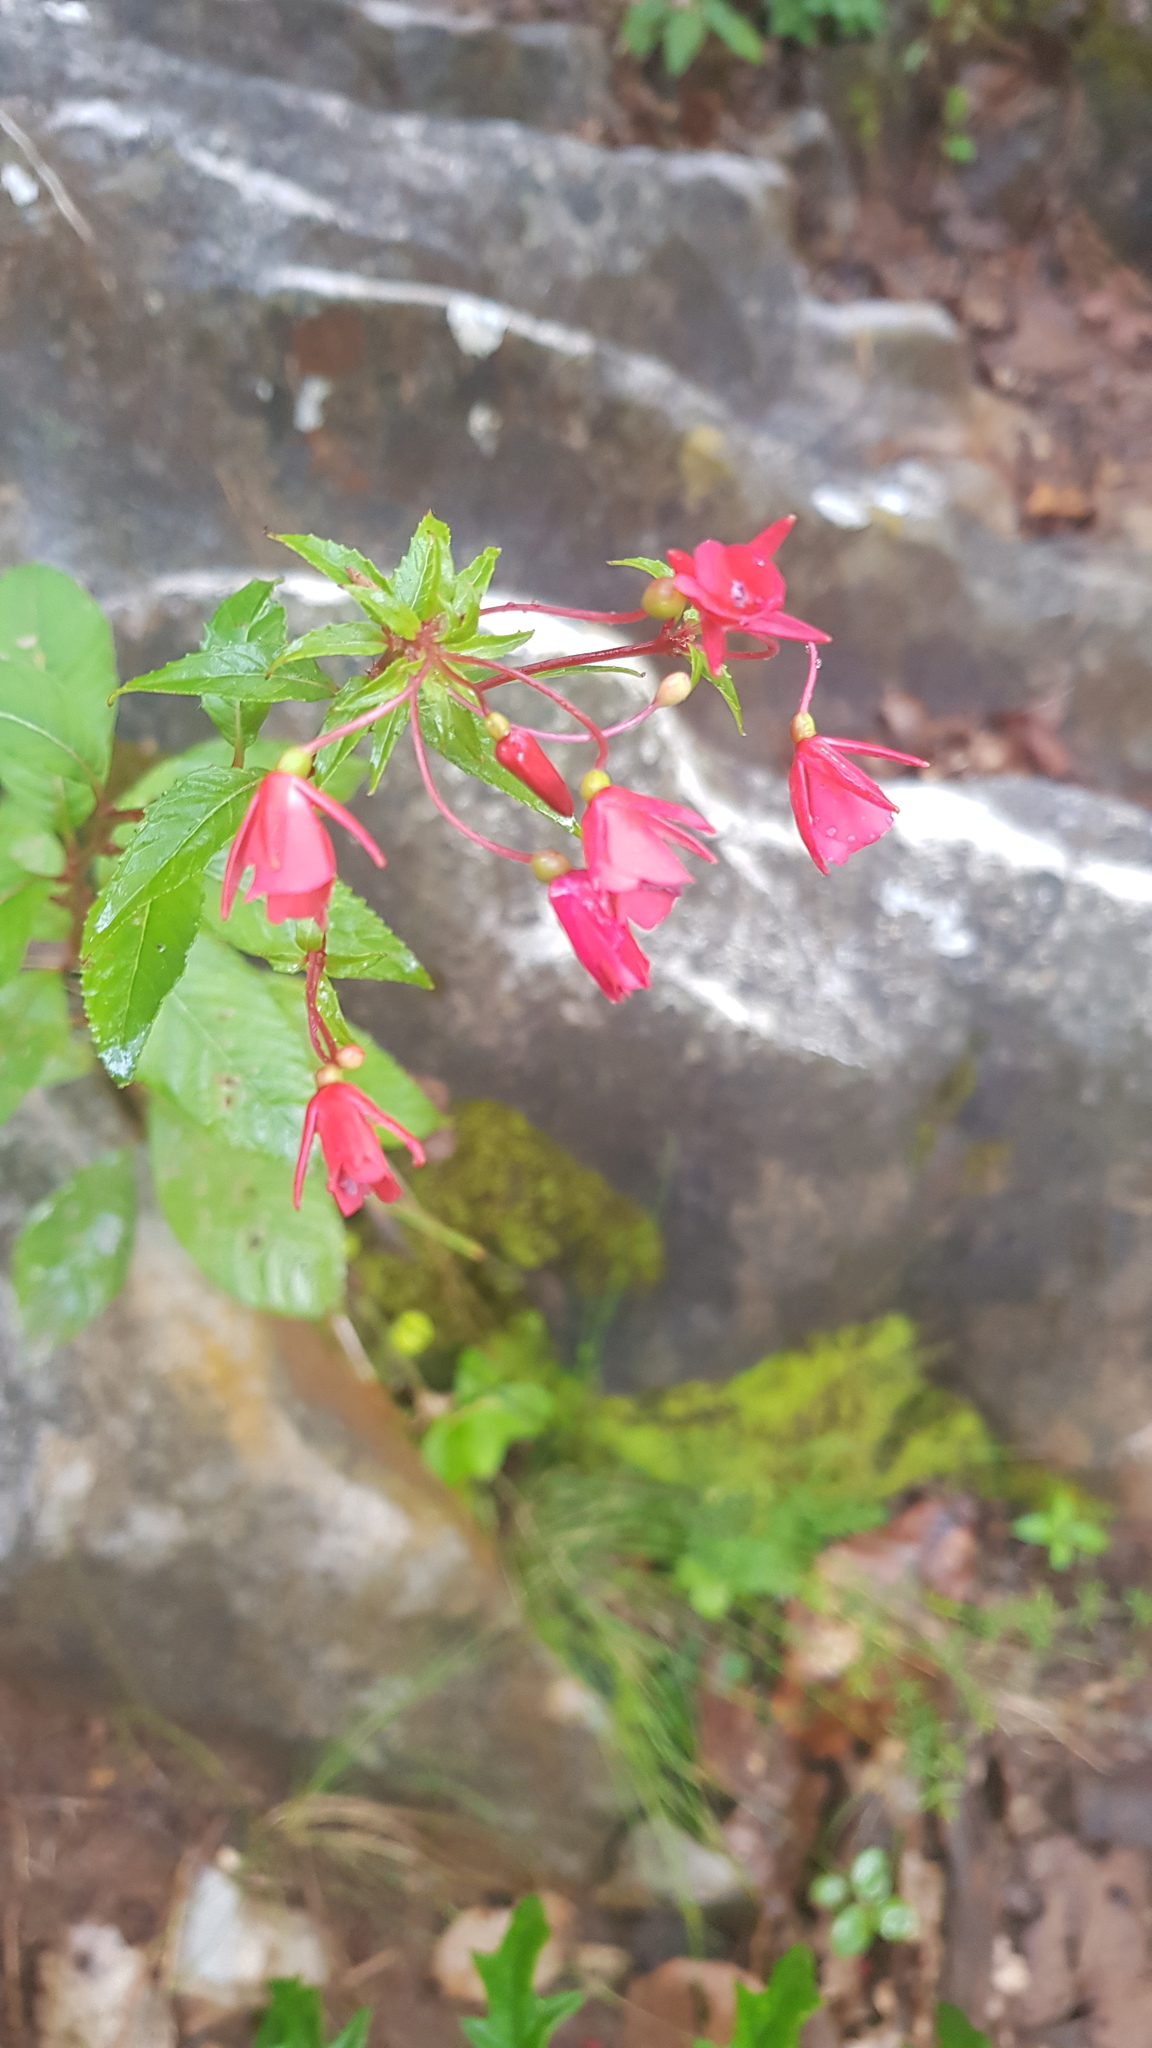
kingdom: Plantae
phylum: Tracheophyta
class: Magnoliopsida
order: Myrtales
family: Onagraceae
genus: Lopezia
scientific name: Lopezia grandiflora
